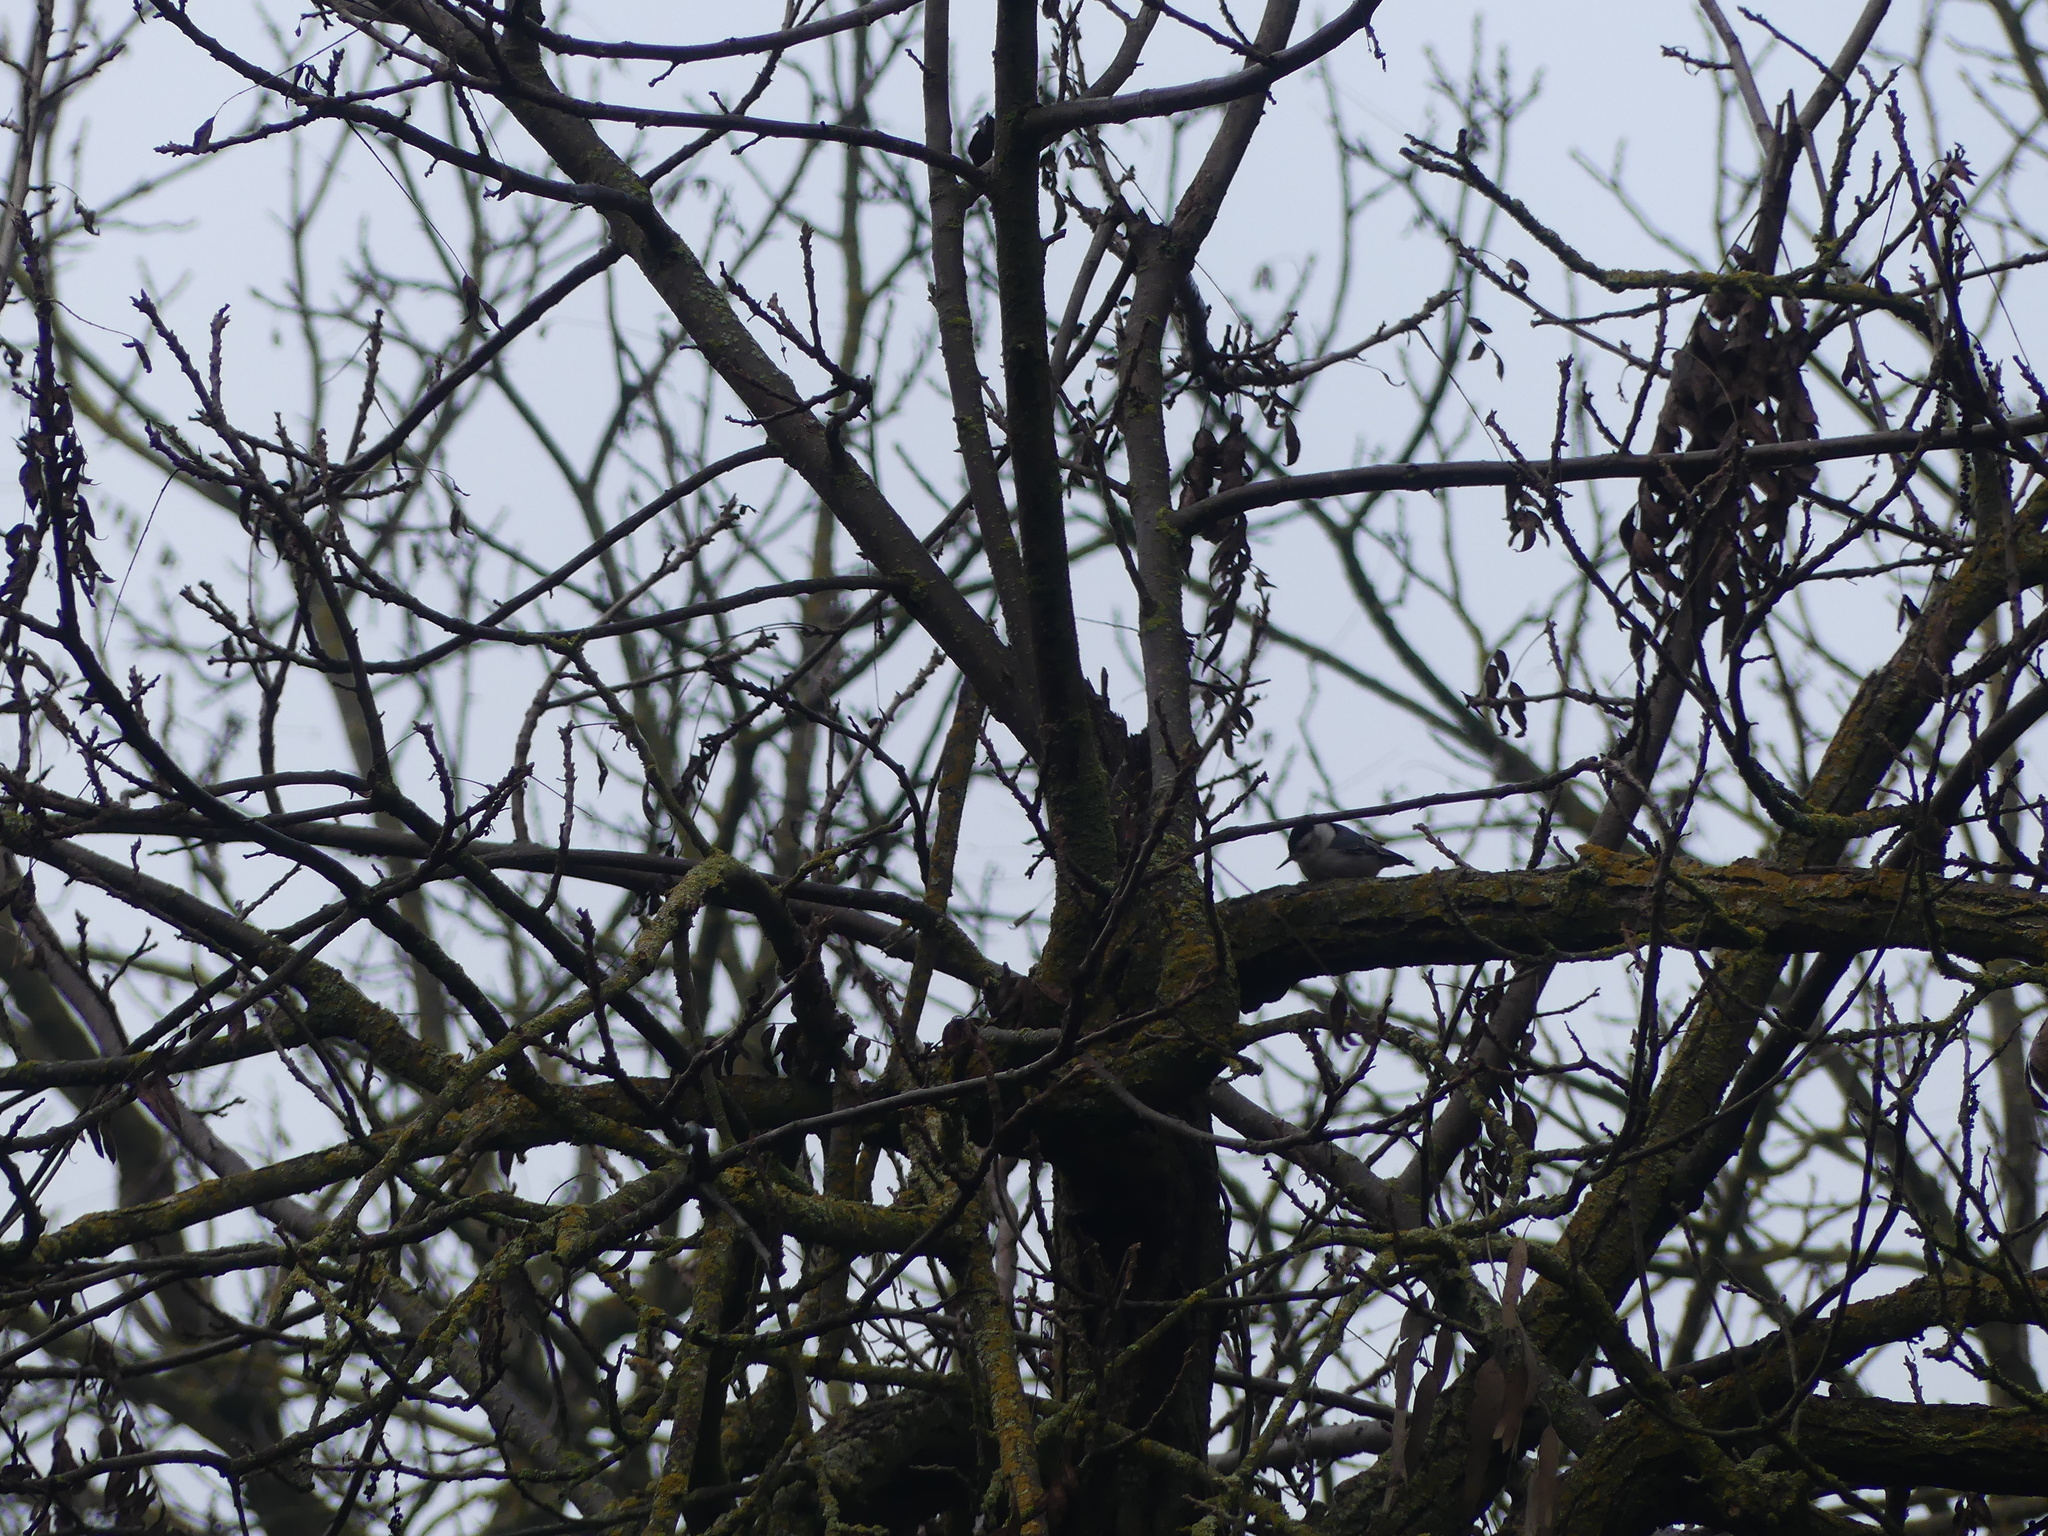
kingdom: Animalia
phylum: Chordata
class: Aves
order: Passeriformes
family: Sittidae
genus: Sitta
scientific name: Sitta carolinensis
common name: White-breasted nuthatch
